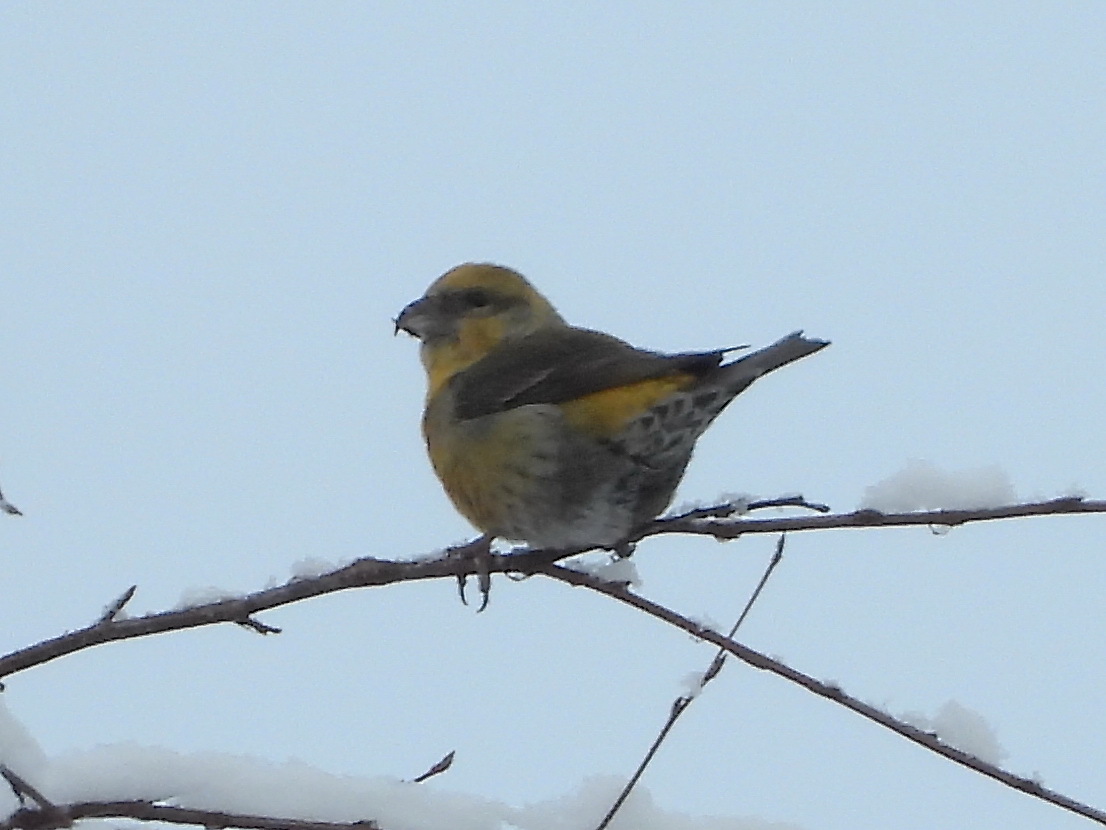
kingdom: Animalia
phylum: Chordata
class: Aves
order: Passeriformes
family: Fringillidae
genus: Loxia
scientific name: Loxia curvirostra
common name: Red crossbill
